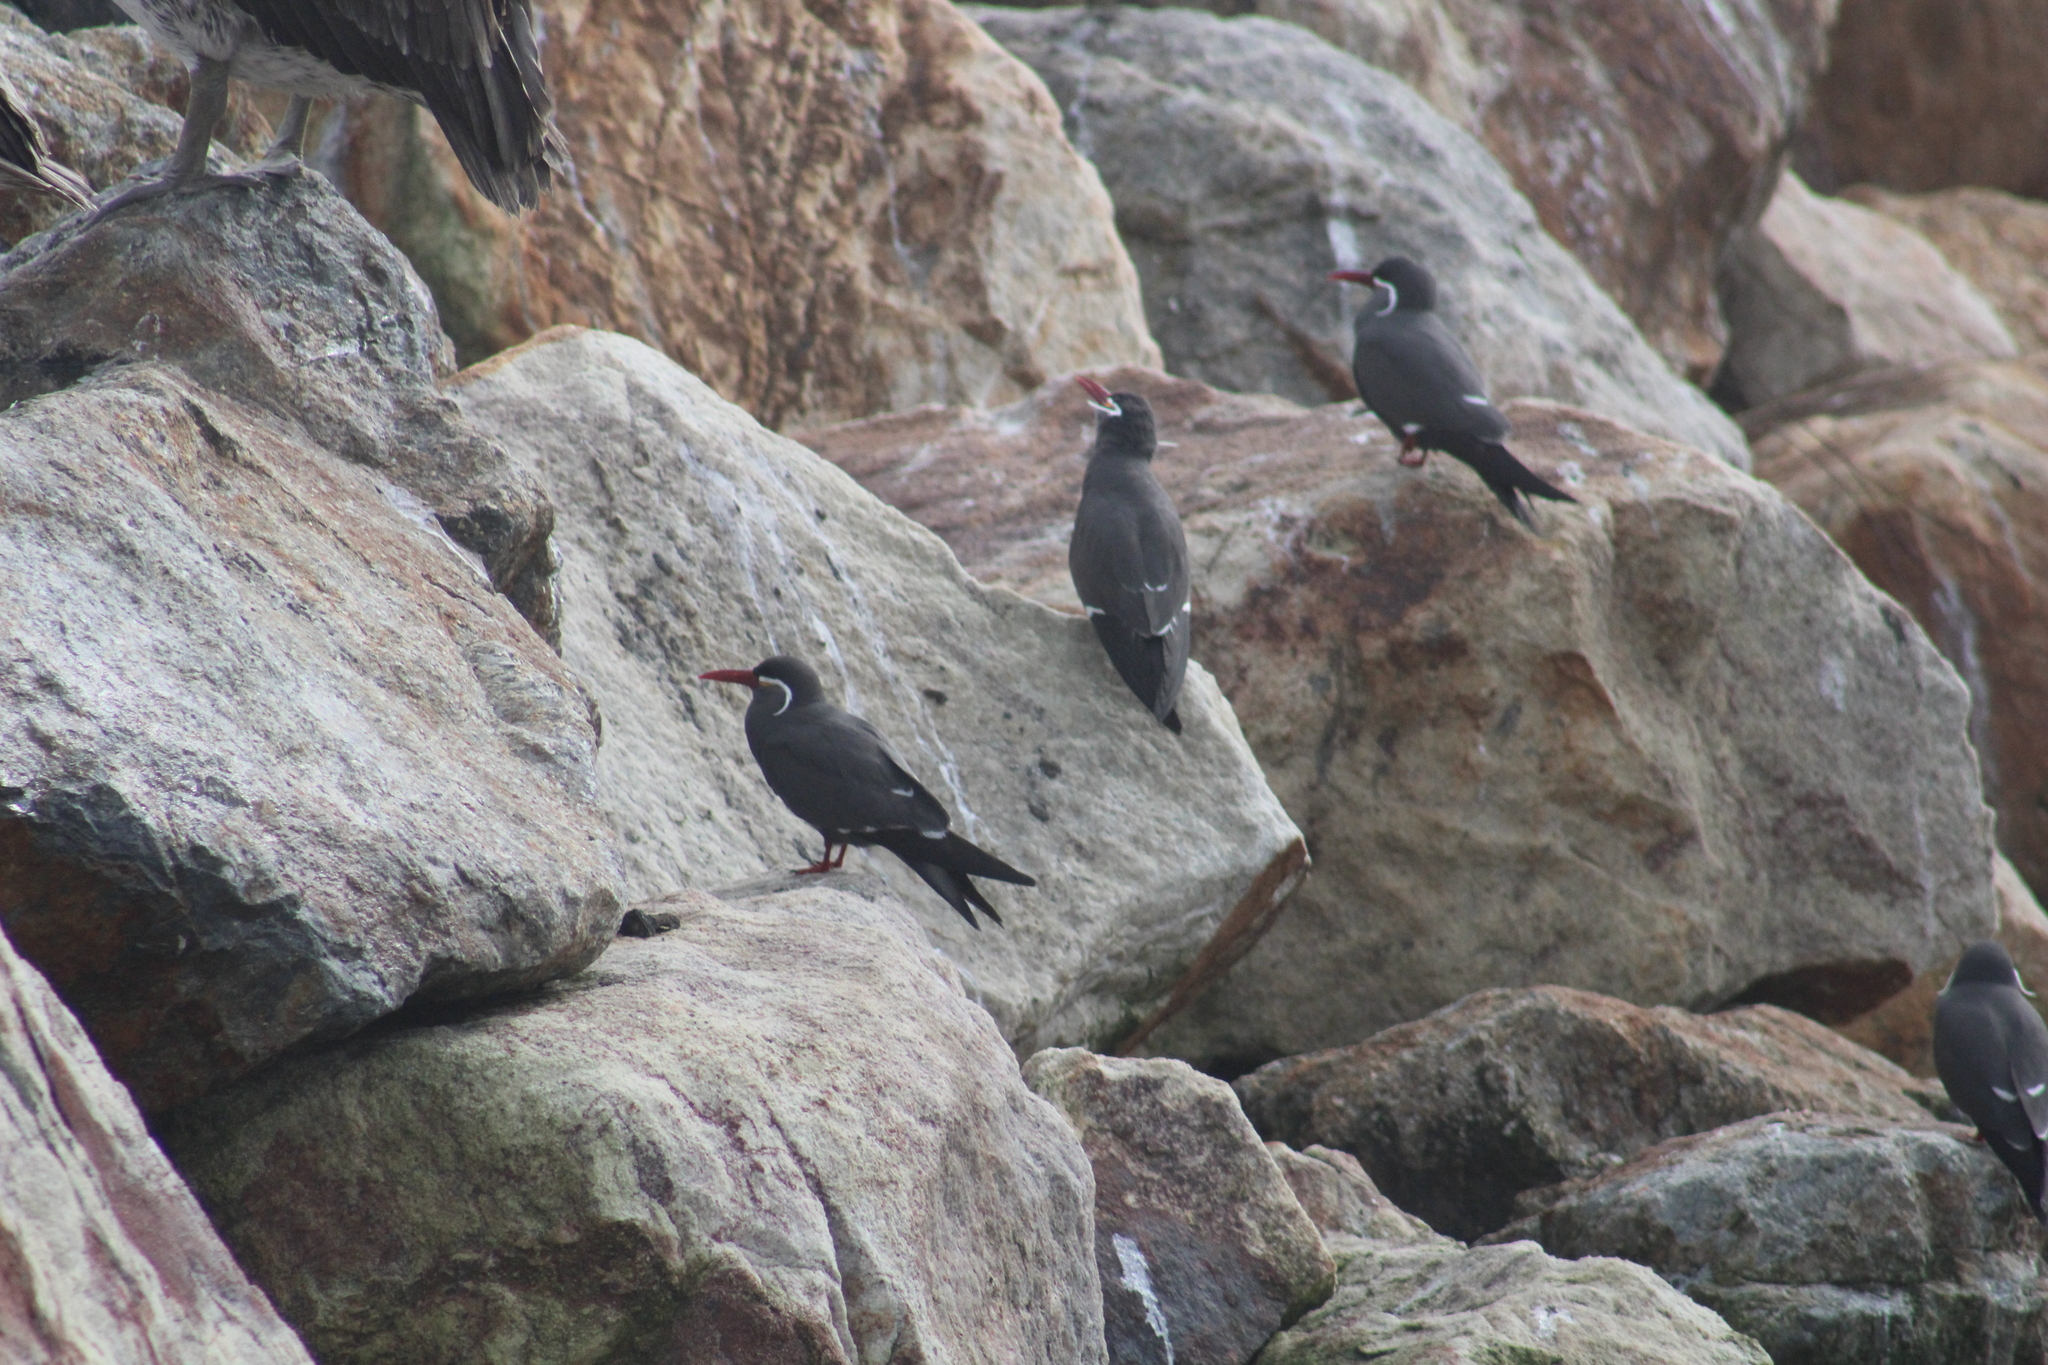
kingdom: Animalia
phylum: Chordata
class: Aves
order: Charadriiformes
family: Laridae
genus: Larosterna
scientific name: Larosterna inca
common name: Inca tern
